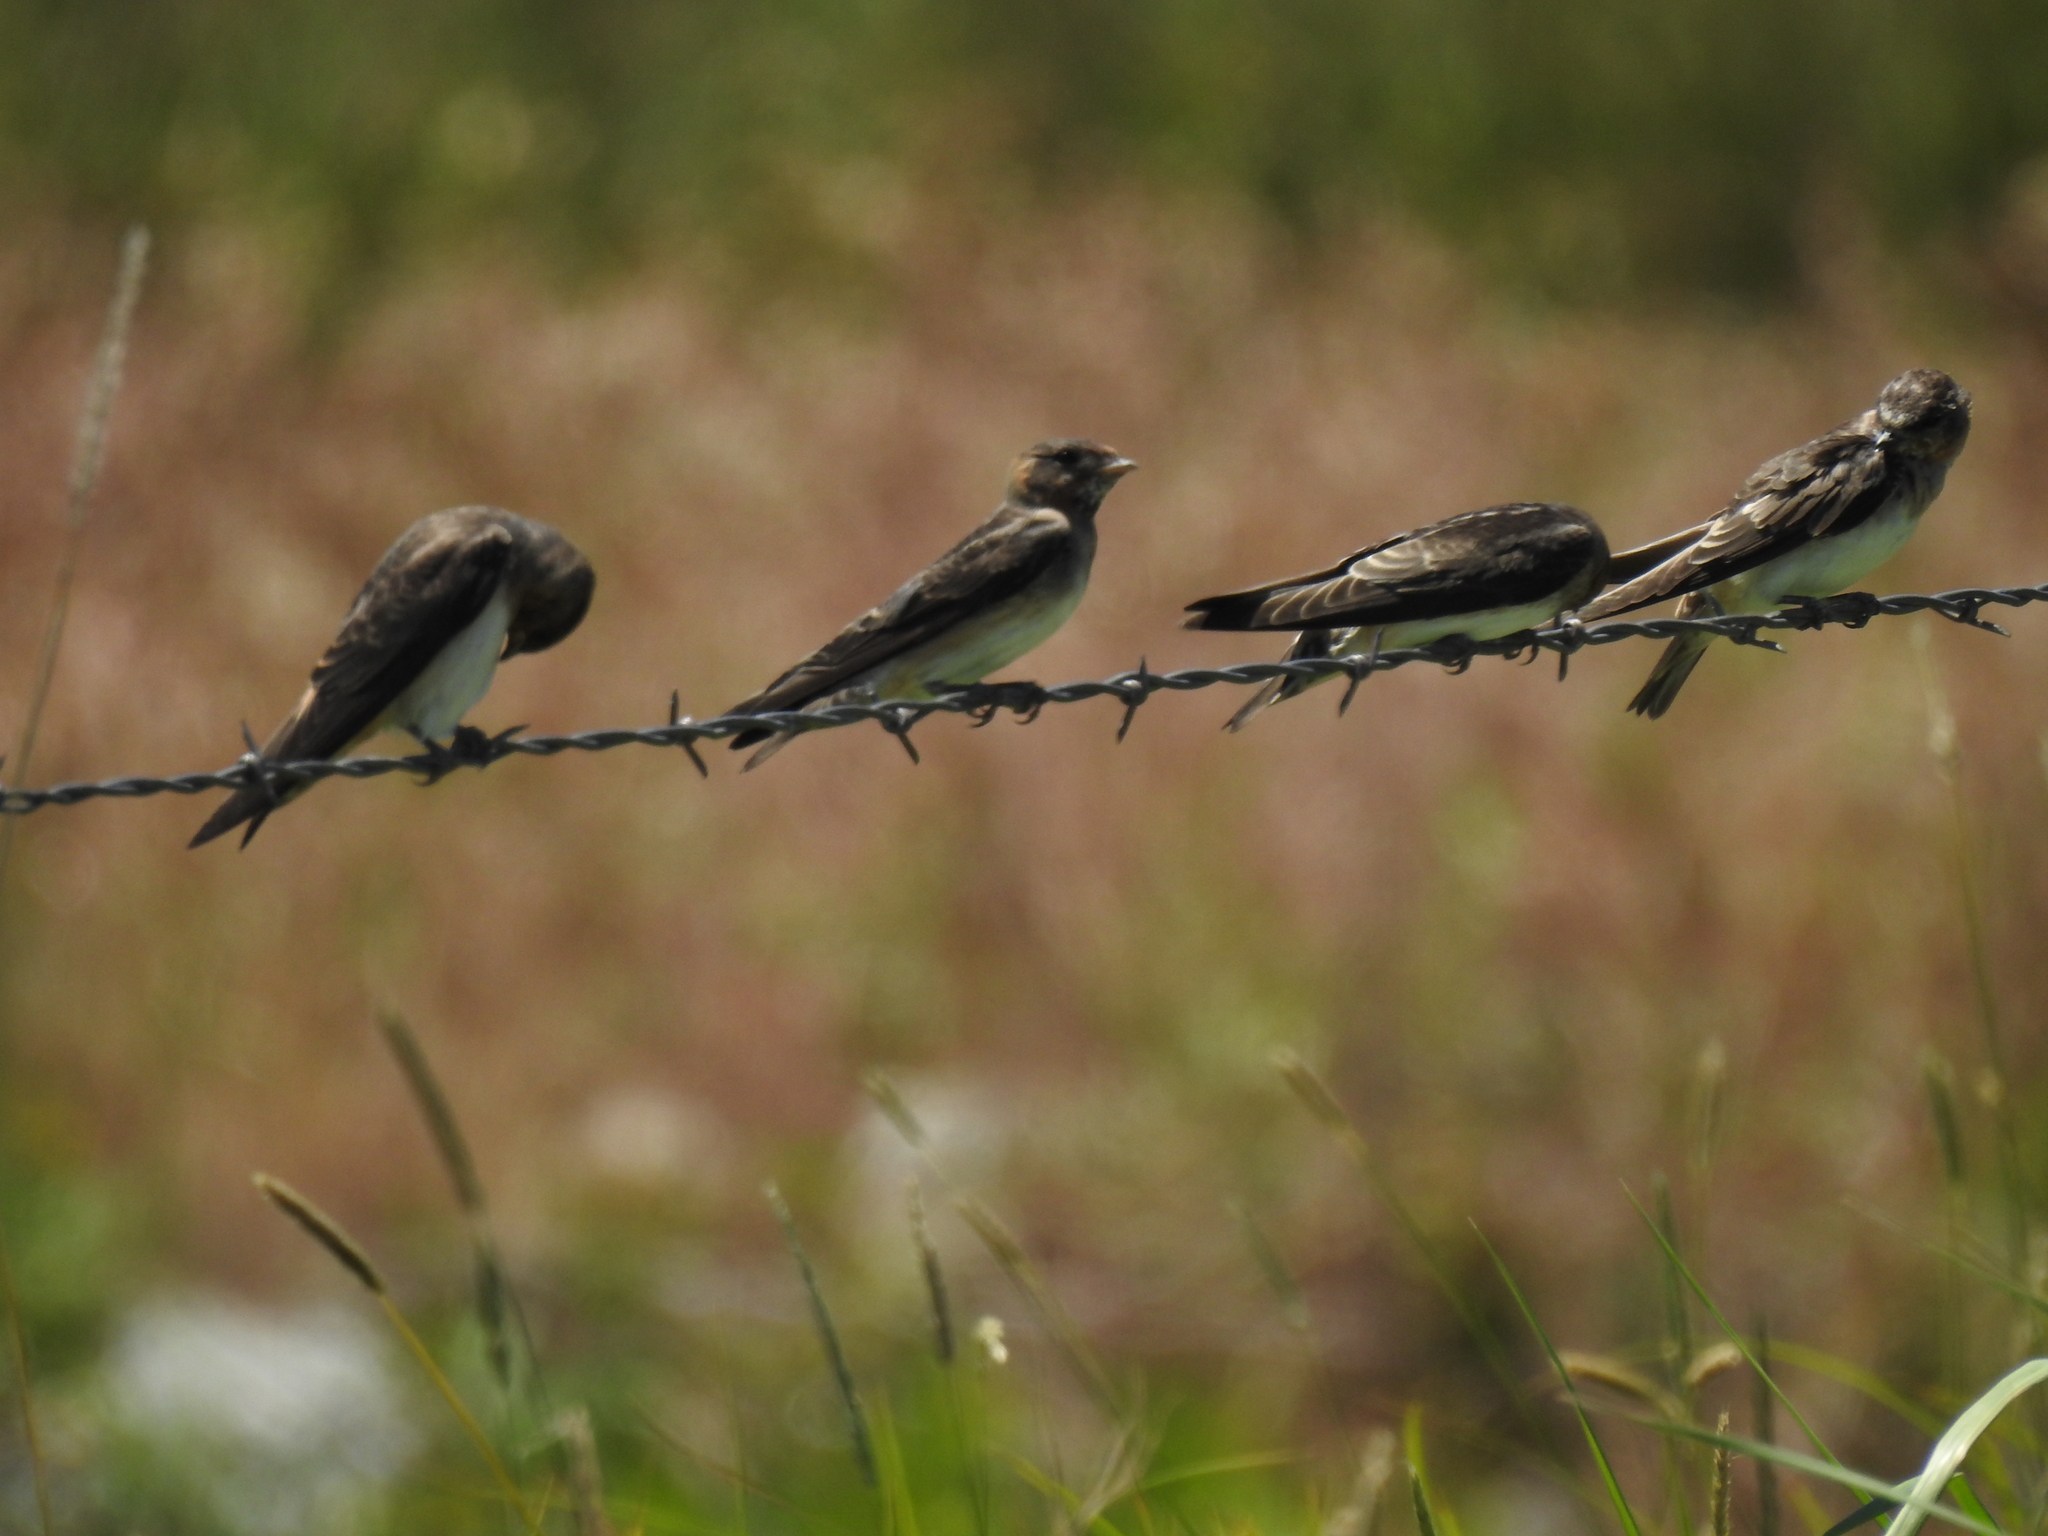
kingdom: Animalia
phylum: Chordata
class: Aves
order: Passeriformes
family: Hirundinidae
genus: Petrochelidon
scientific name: Petrochelidon pyrrhonota
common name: American cliff swallow
